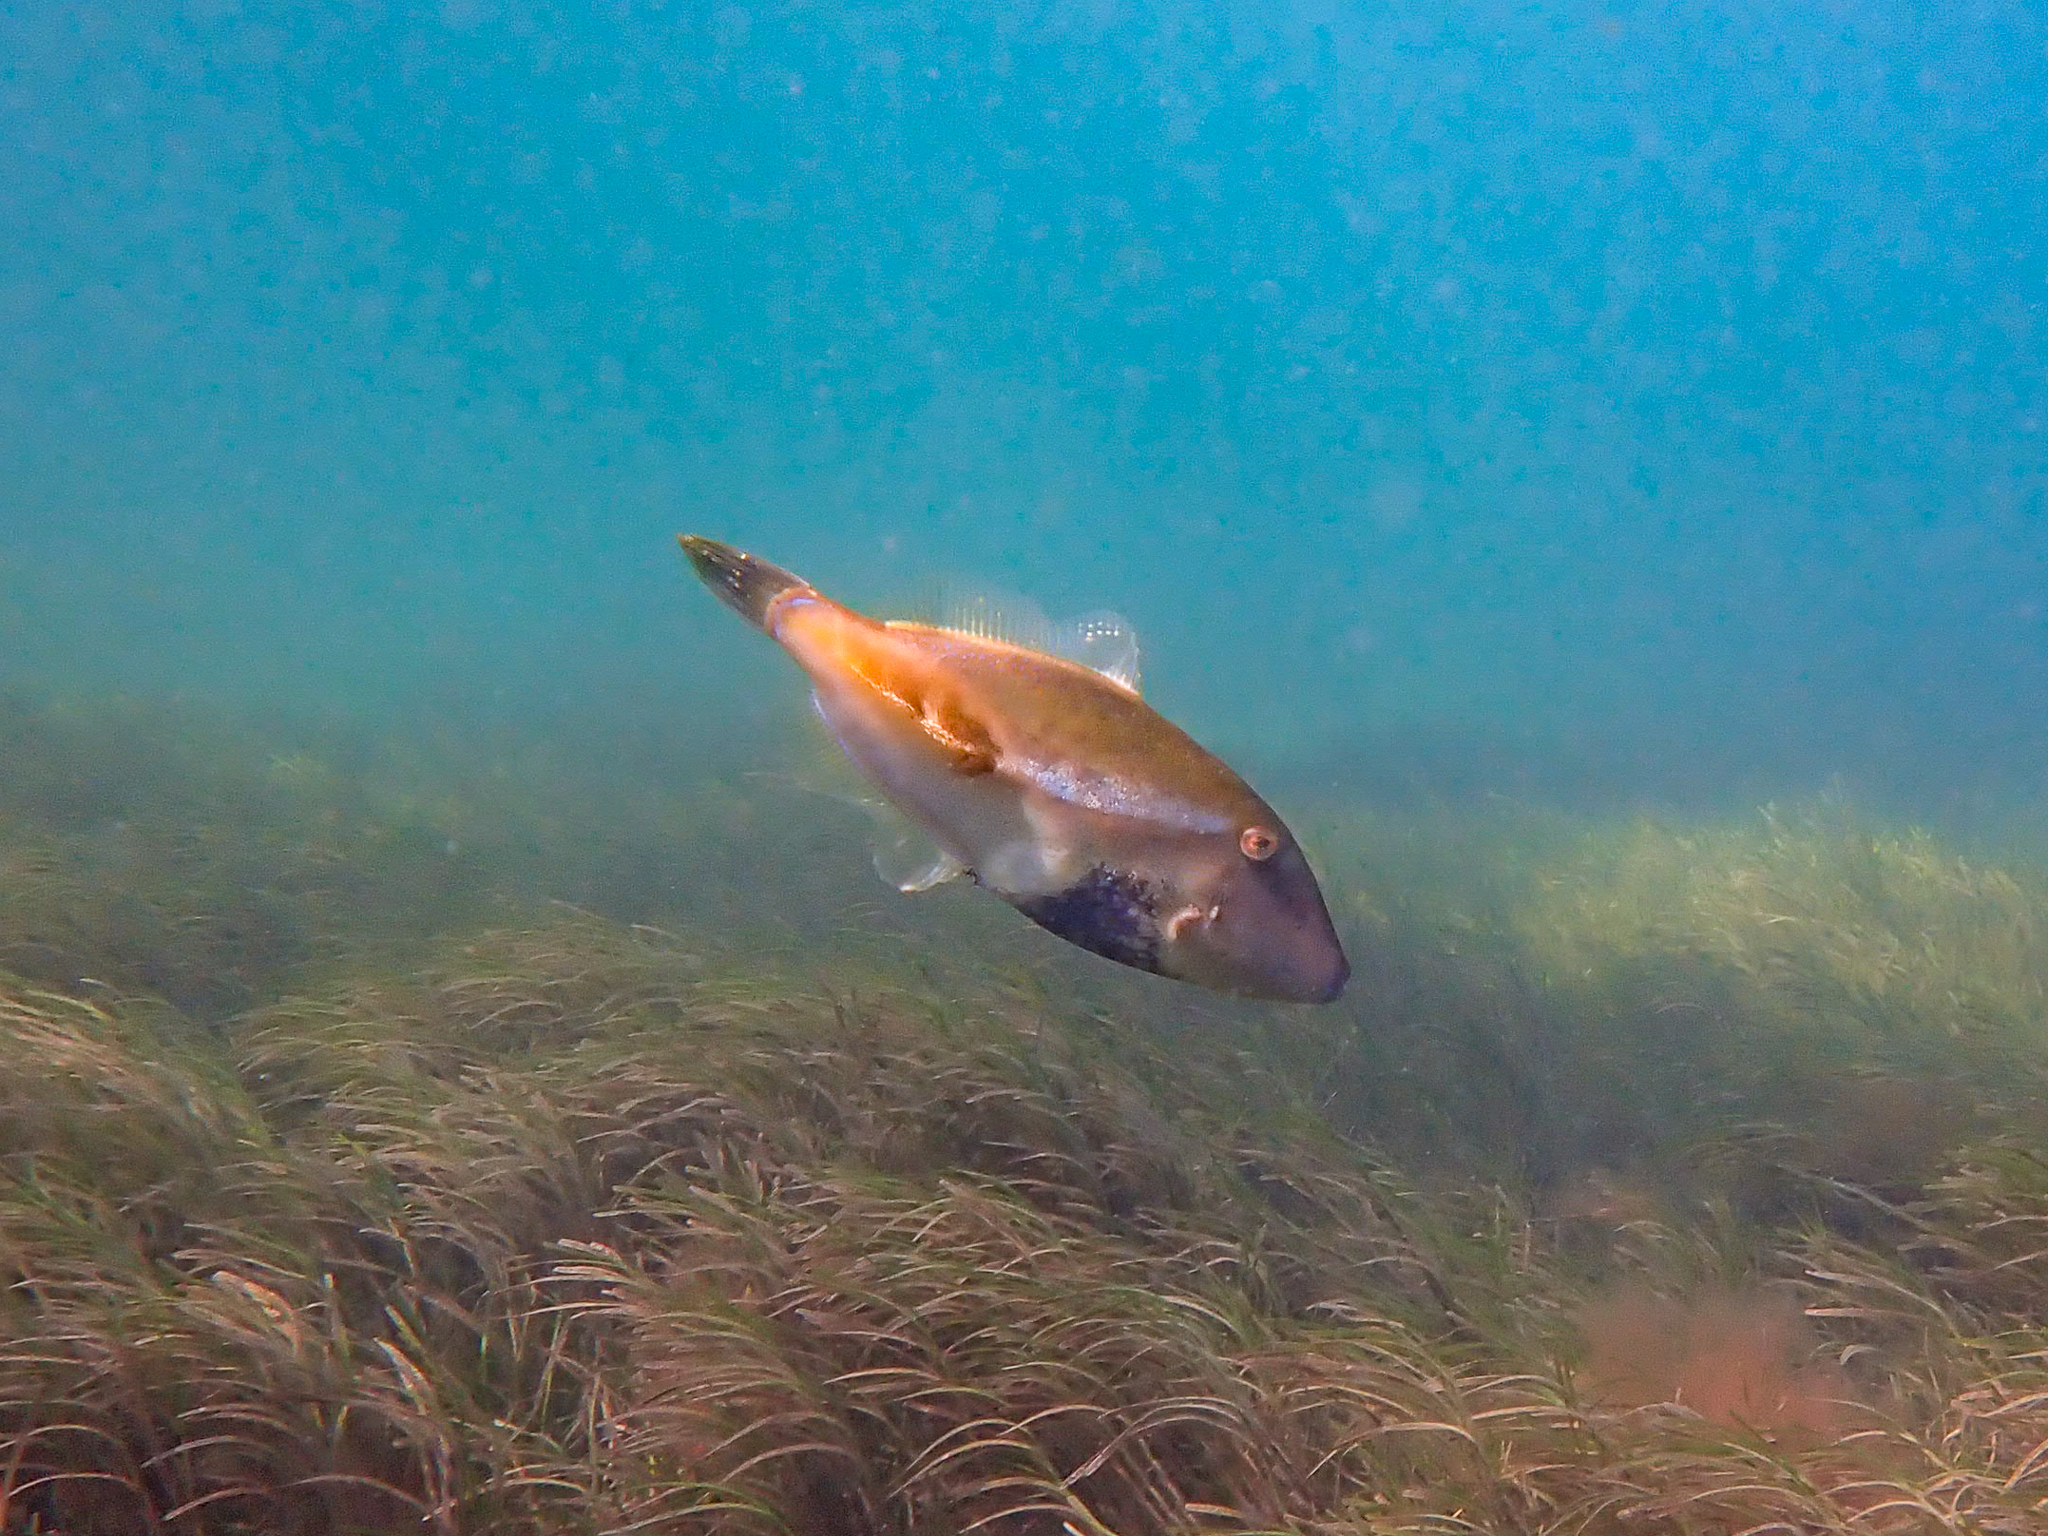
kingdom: Animalia
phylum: Chordata
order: Tetraodontiformes
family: Monacanthidae
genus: Acanthaluteres
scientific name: Acanthaluteres vittiger
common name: Brown leatherjacket
